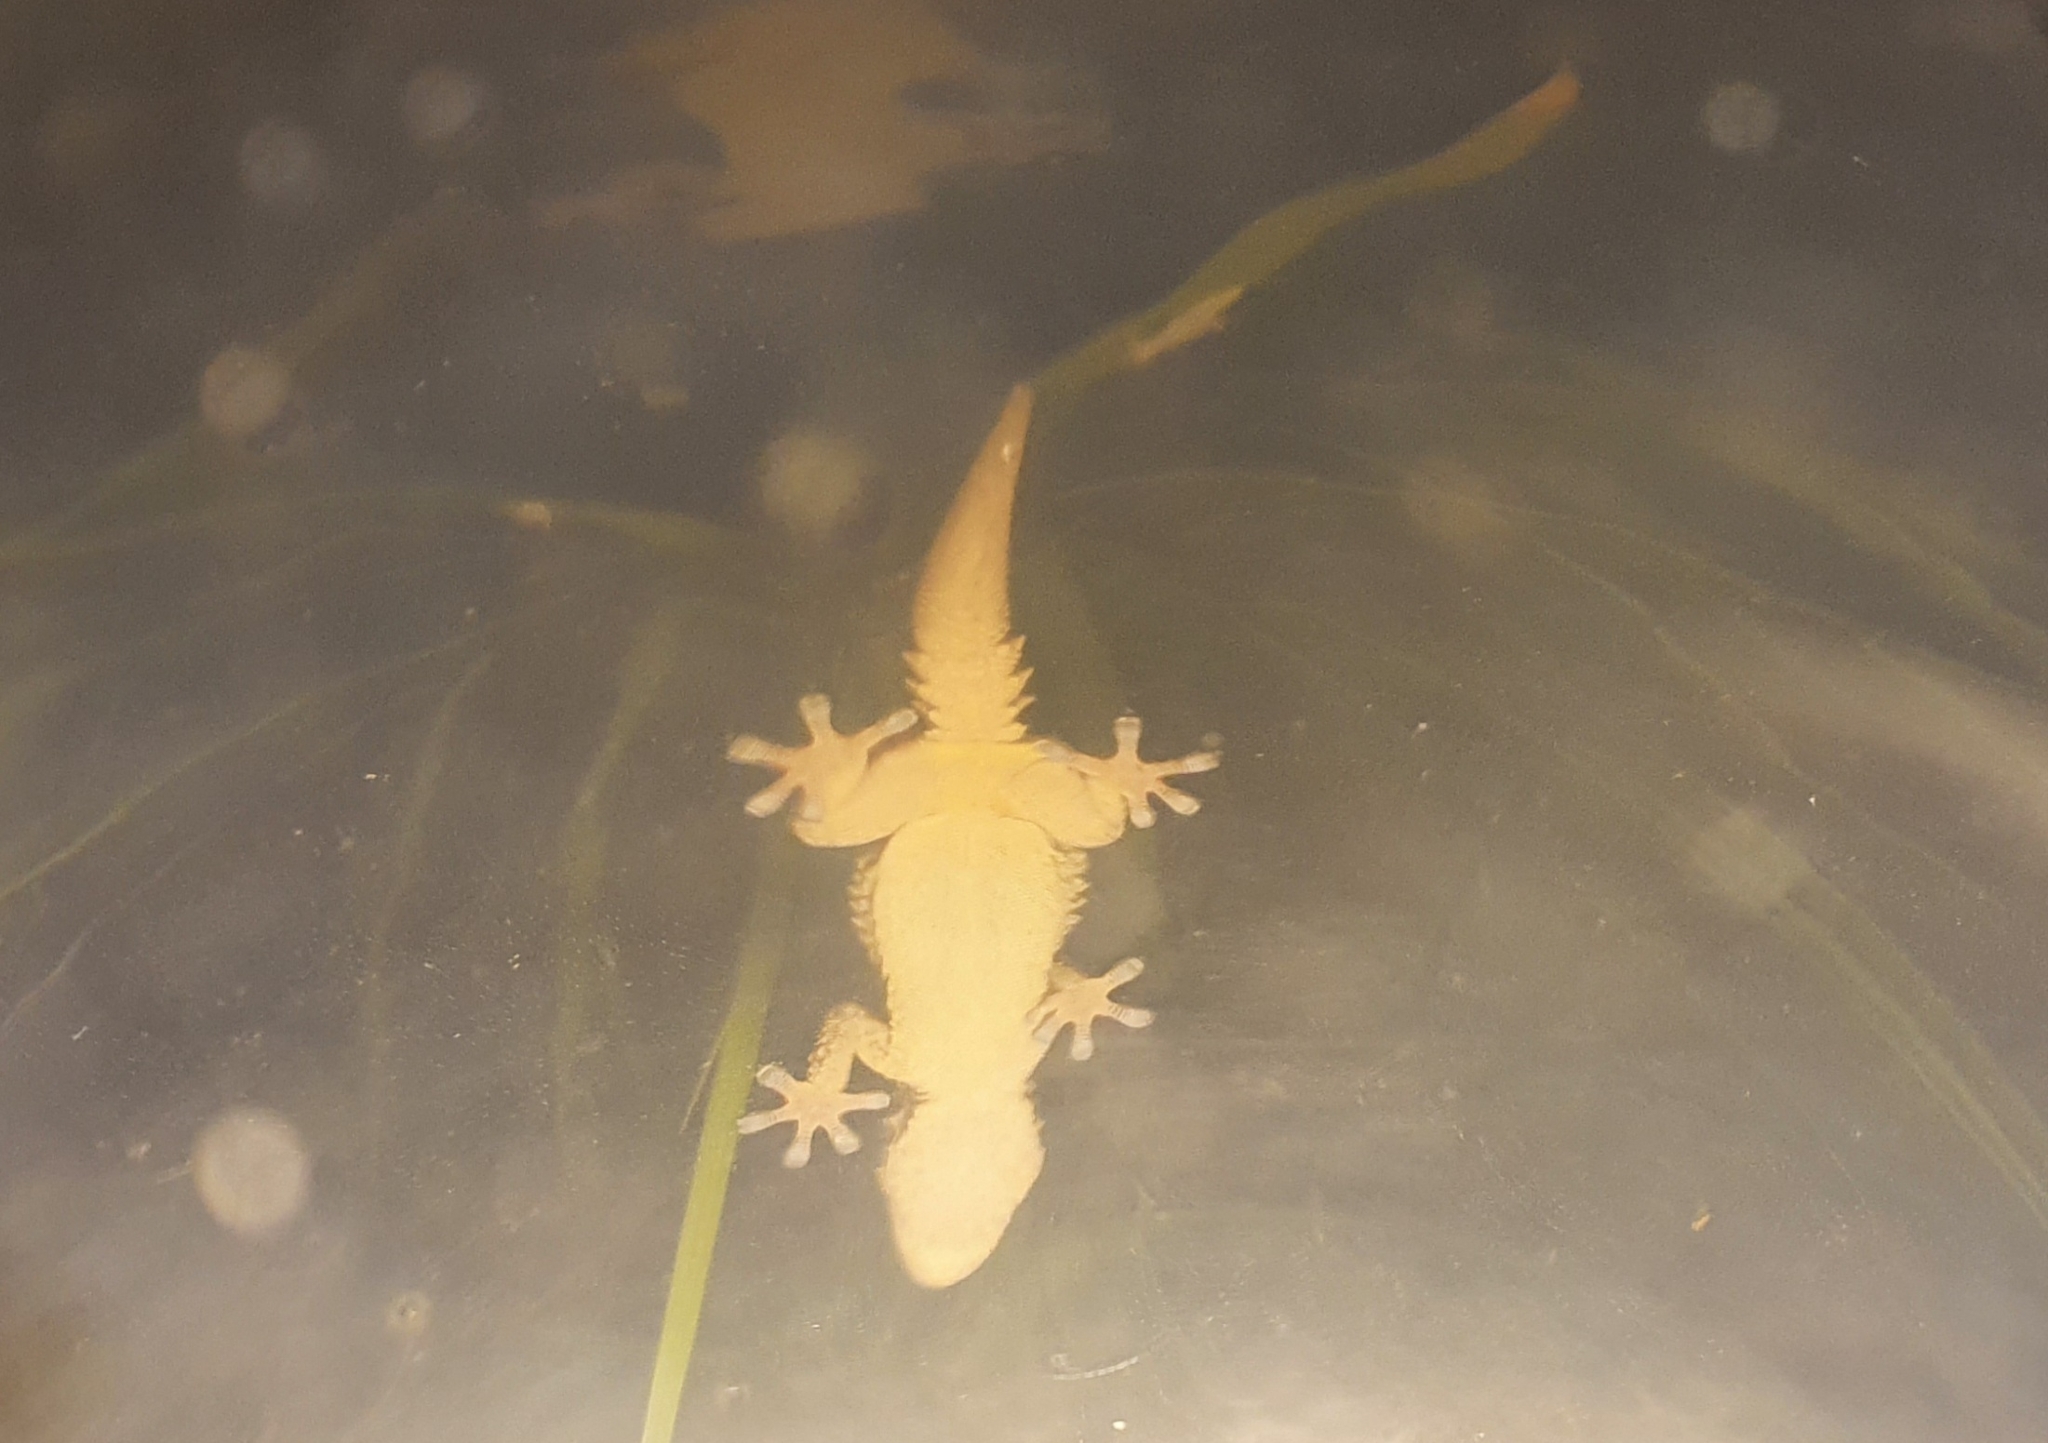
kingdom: Animalia
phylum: Chordata
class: Squamata
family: Phyllodactylidae
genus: Tarentola
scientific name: Tarentola mauritanica
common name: Moorish gecko
